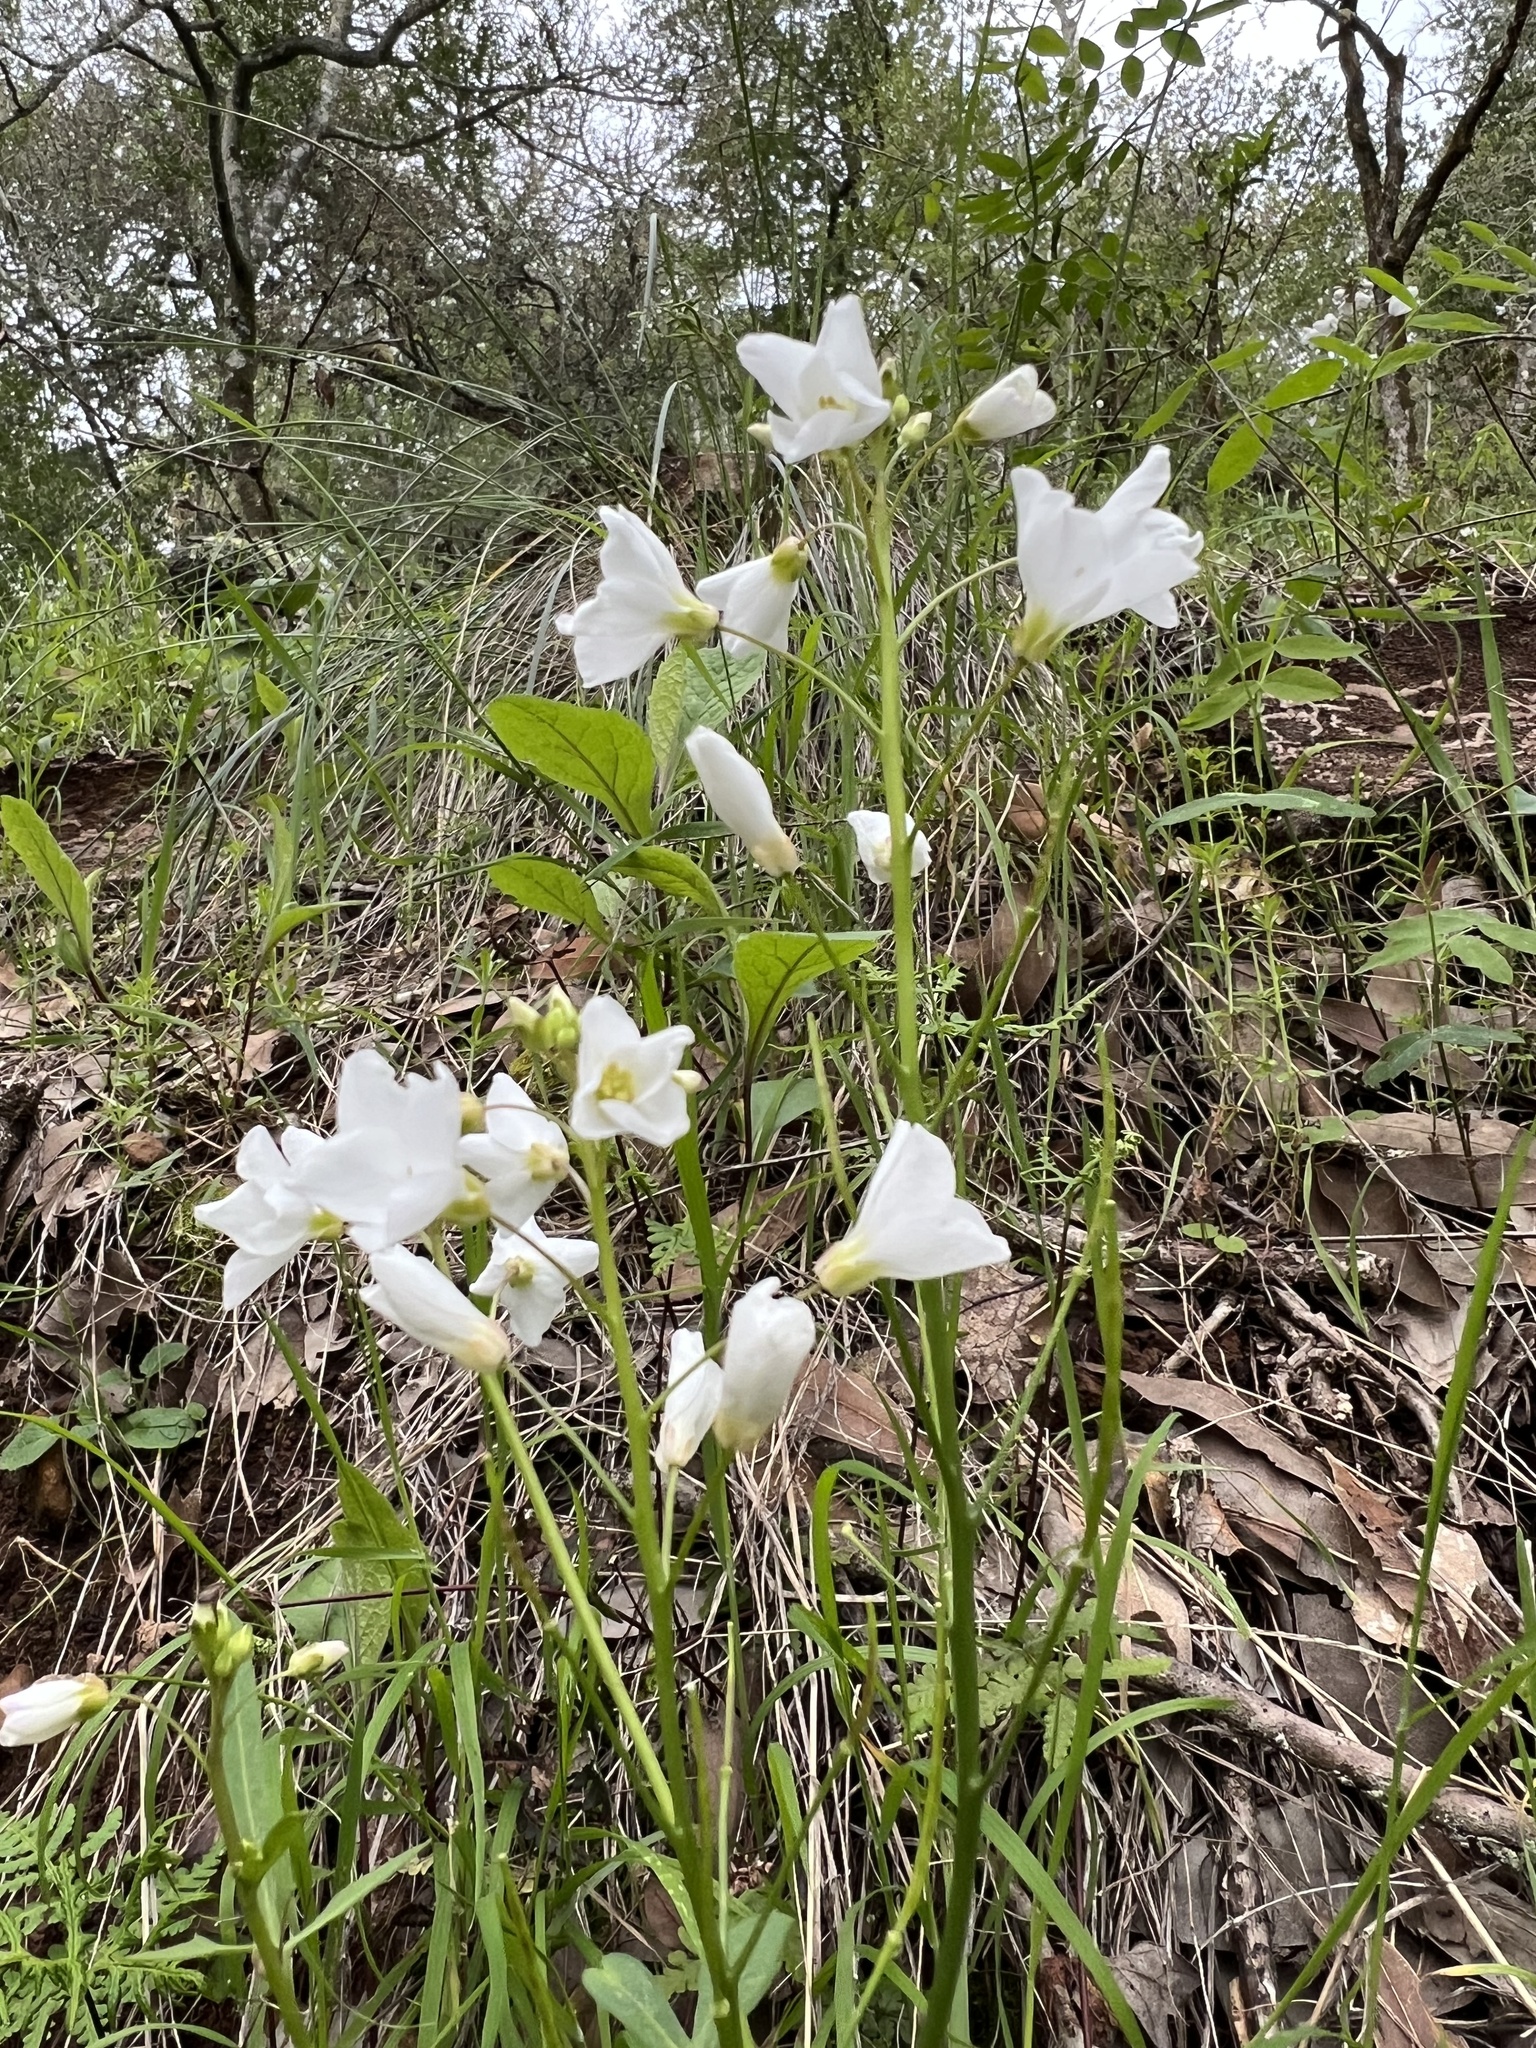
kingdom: Plantae
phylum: Tracheophyta
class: Magnoliopsida
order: Brassicales
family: Brassicaceae
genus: Cardamine
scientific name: Cardamine californica
